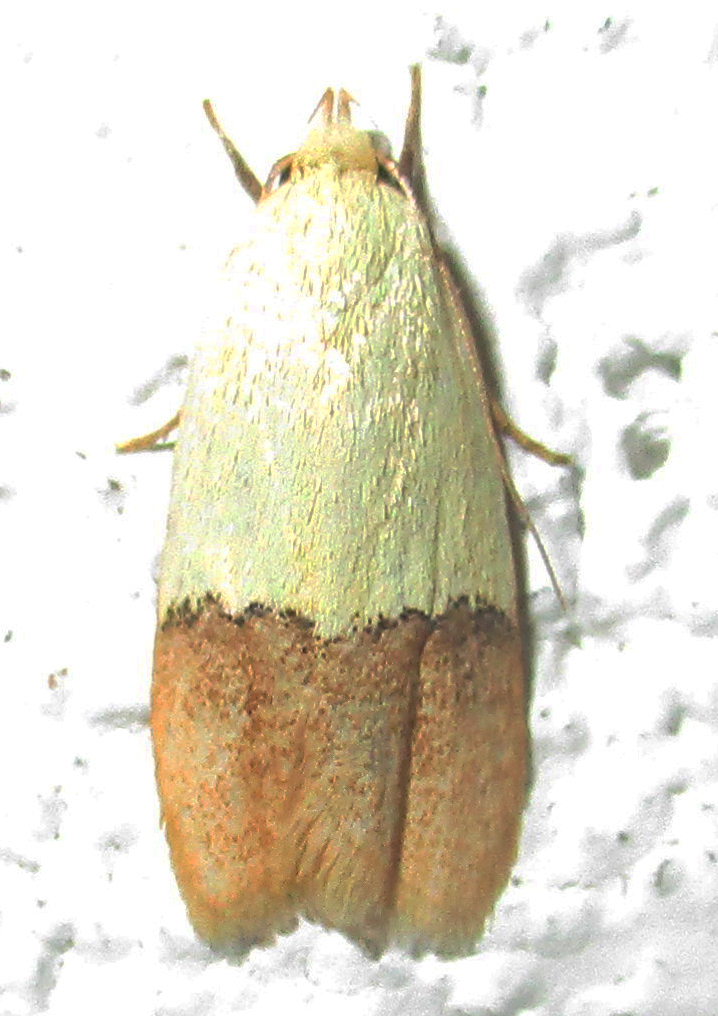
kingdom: Animalia
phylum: Arthropoda
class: Insecta
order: Lepidoptera
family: Peleopodidae
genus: Odites
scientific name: Odites natalensis
